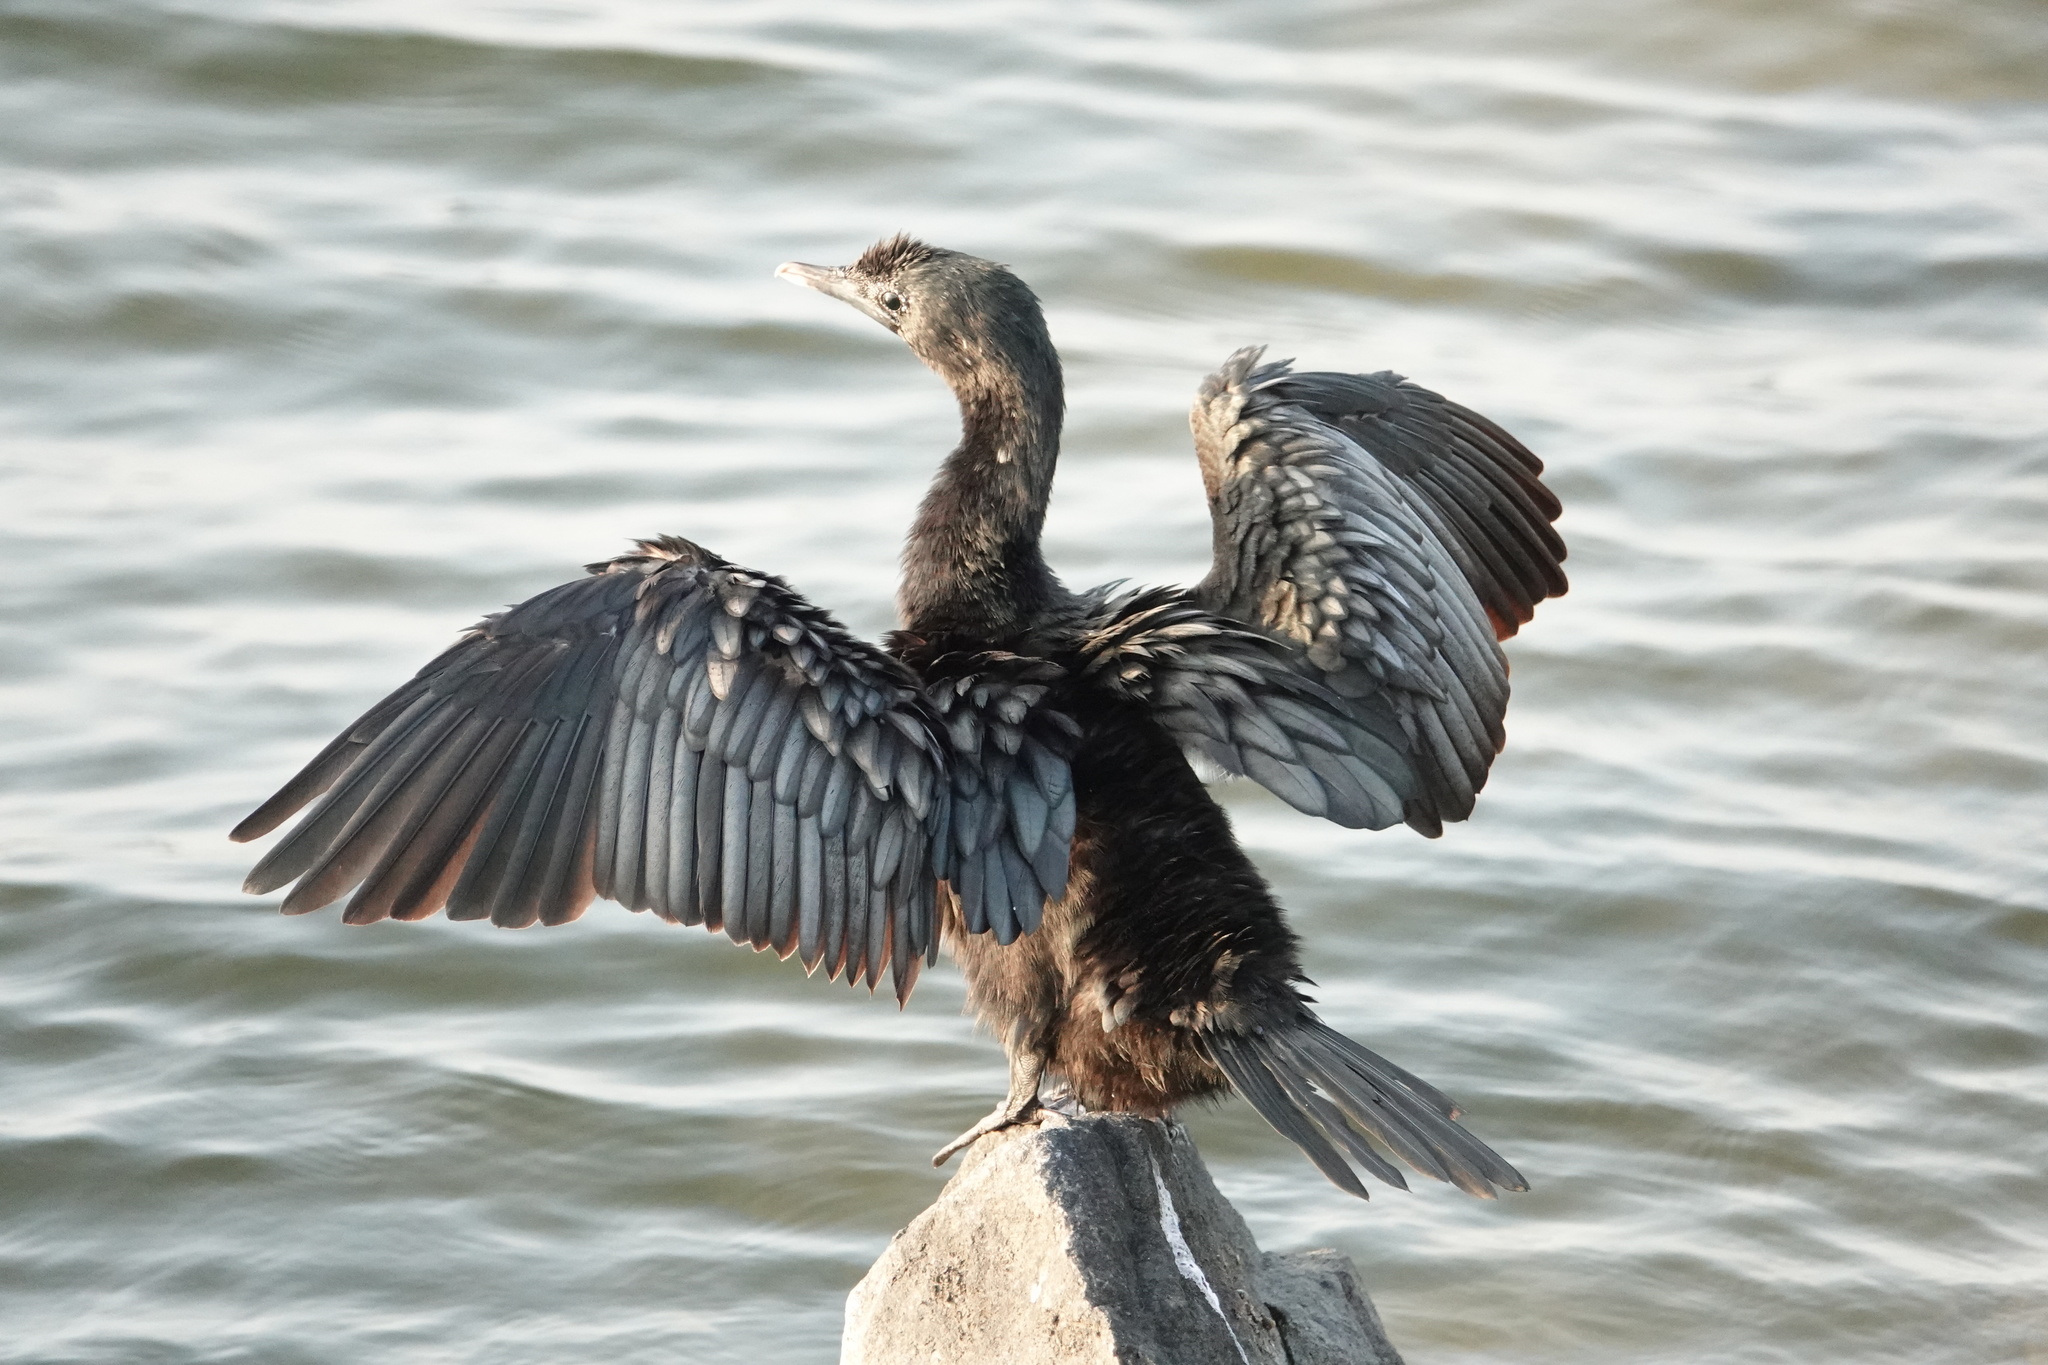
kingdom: Animalia
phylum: Chordata
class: Aves
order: Suliformes
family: Phalacrocoracidae
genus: Microcarbo
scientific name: Microcarbo niger
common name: Little cormorant
